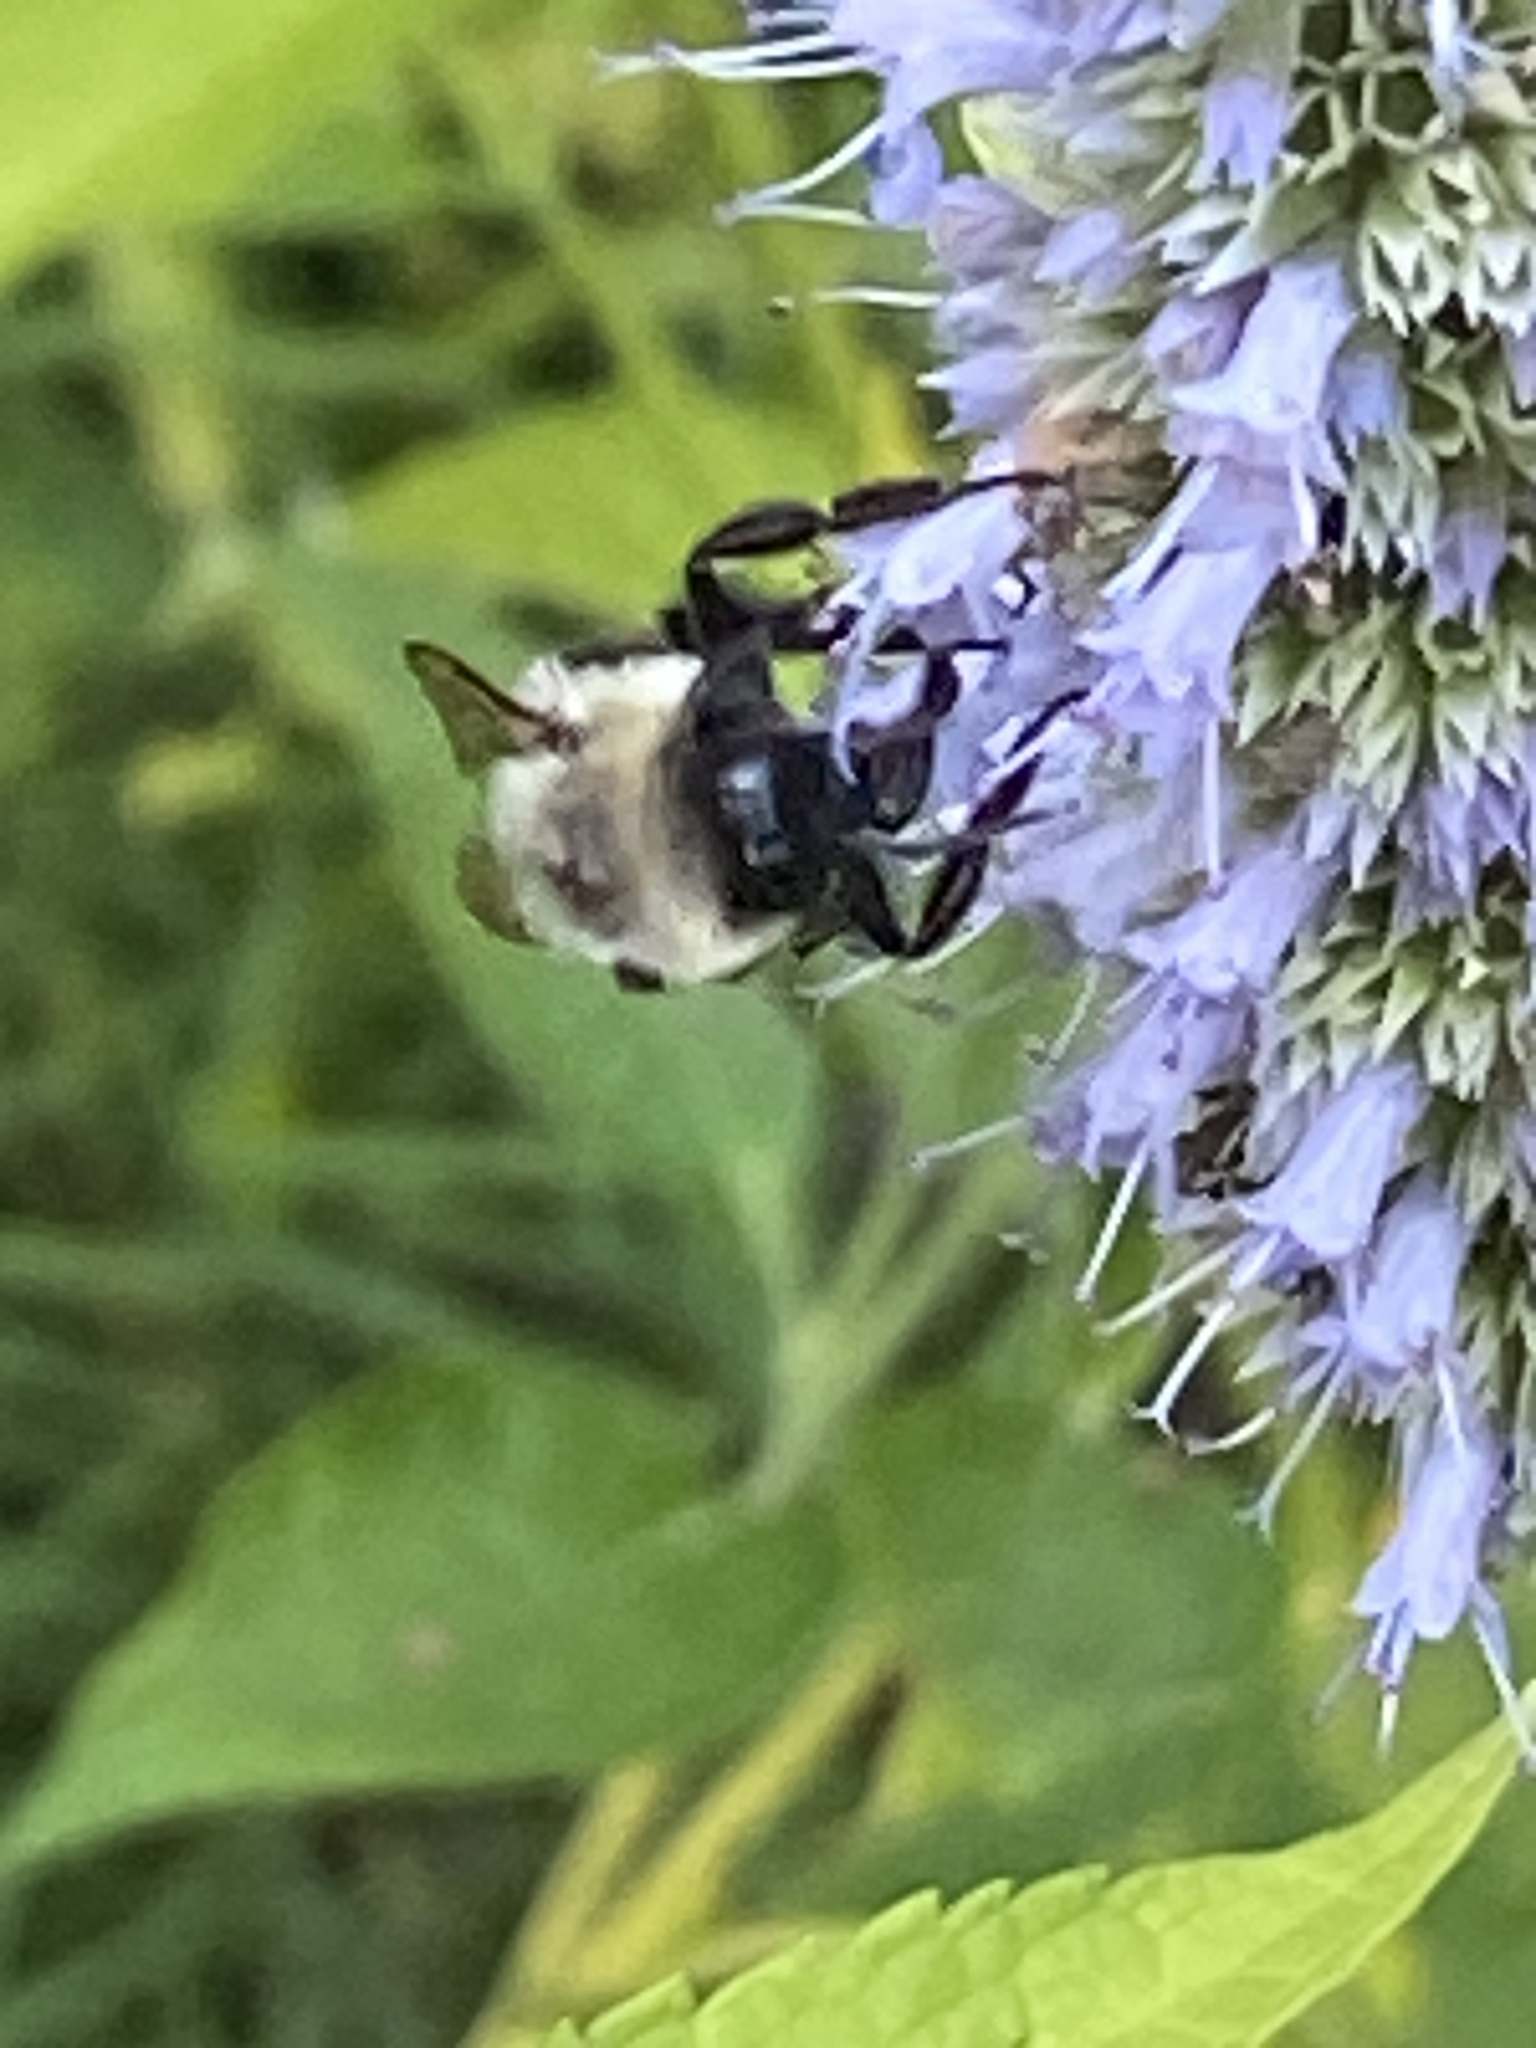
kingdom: Animalia
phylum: Arthropoda
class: Insecta
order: Hymenoptera
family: Apidae
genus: Bombus
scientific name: Bombus impatiens
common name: Common eastern bumble bee
